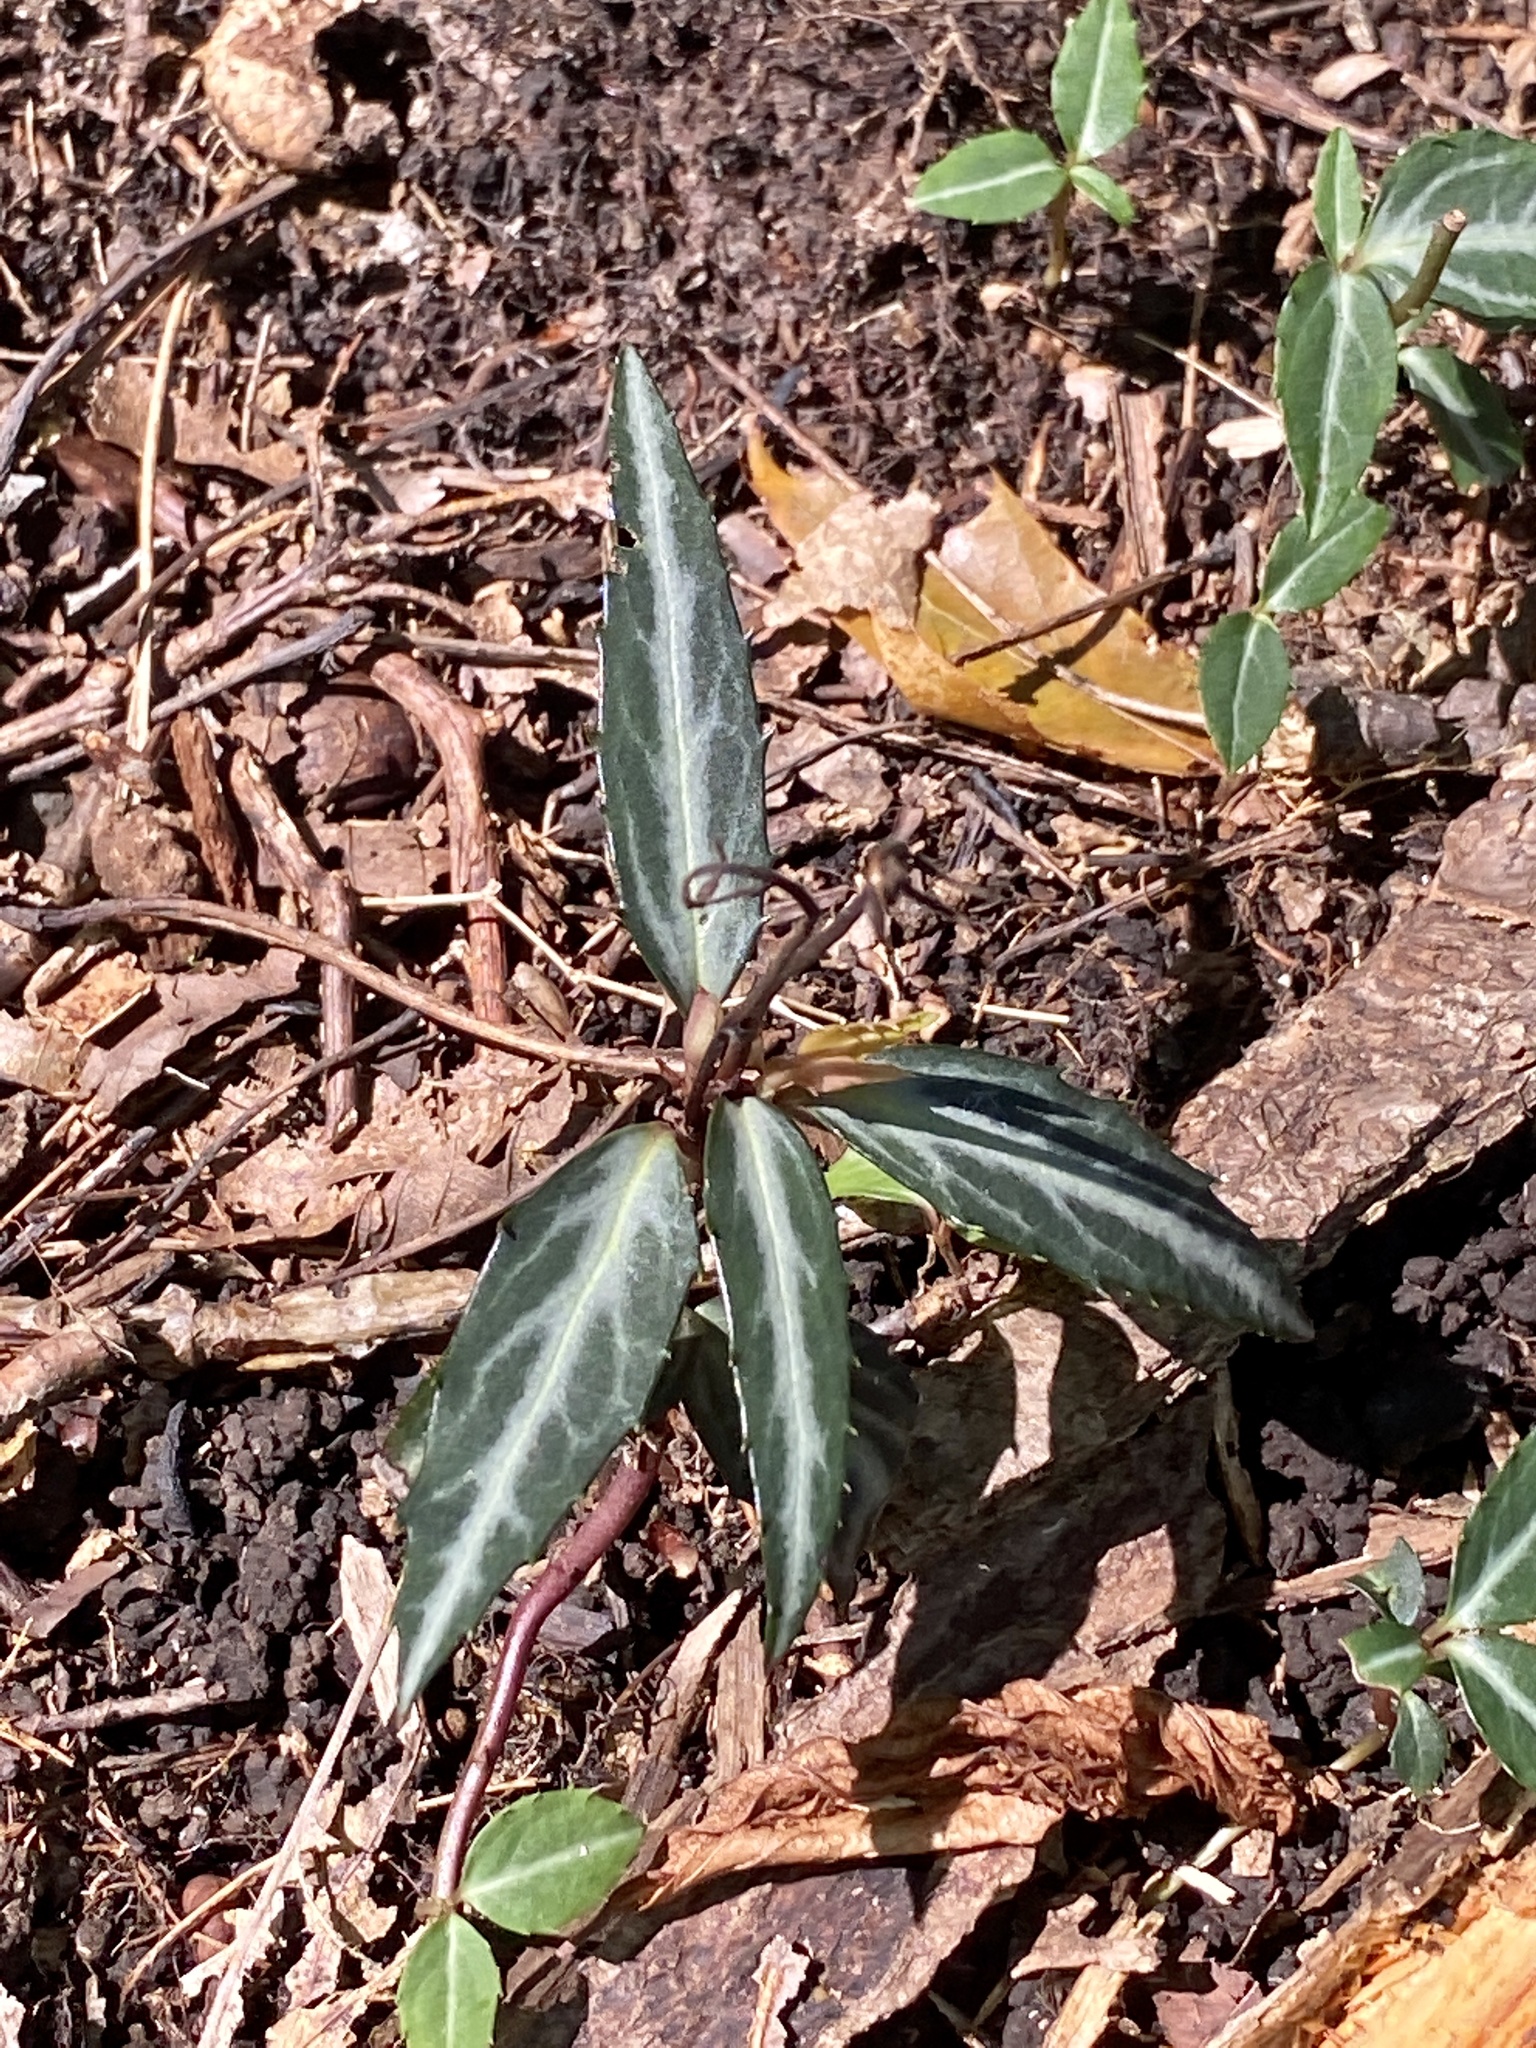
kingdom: Plantae
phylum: Tracheophyta
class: Magnoliopsida
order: Ericales
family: Ericaceae
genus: Chimaphila
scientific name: Chimaphila maculata
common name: Spotted pipsissewa
